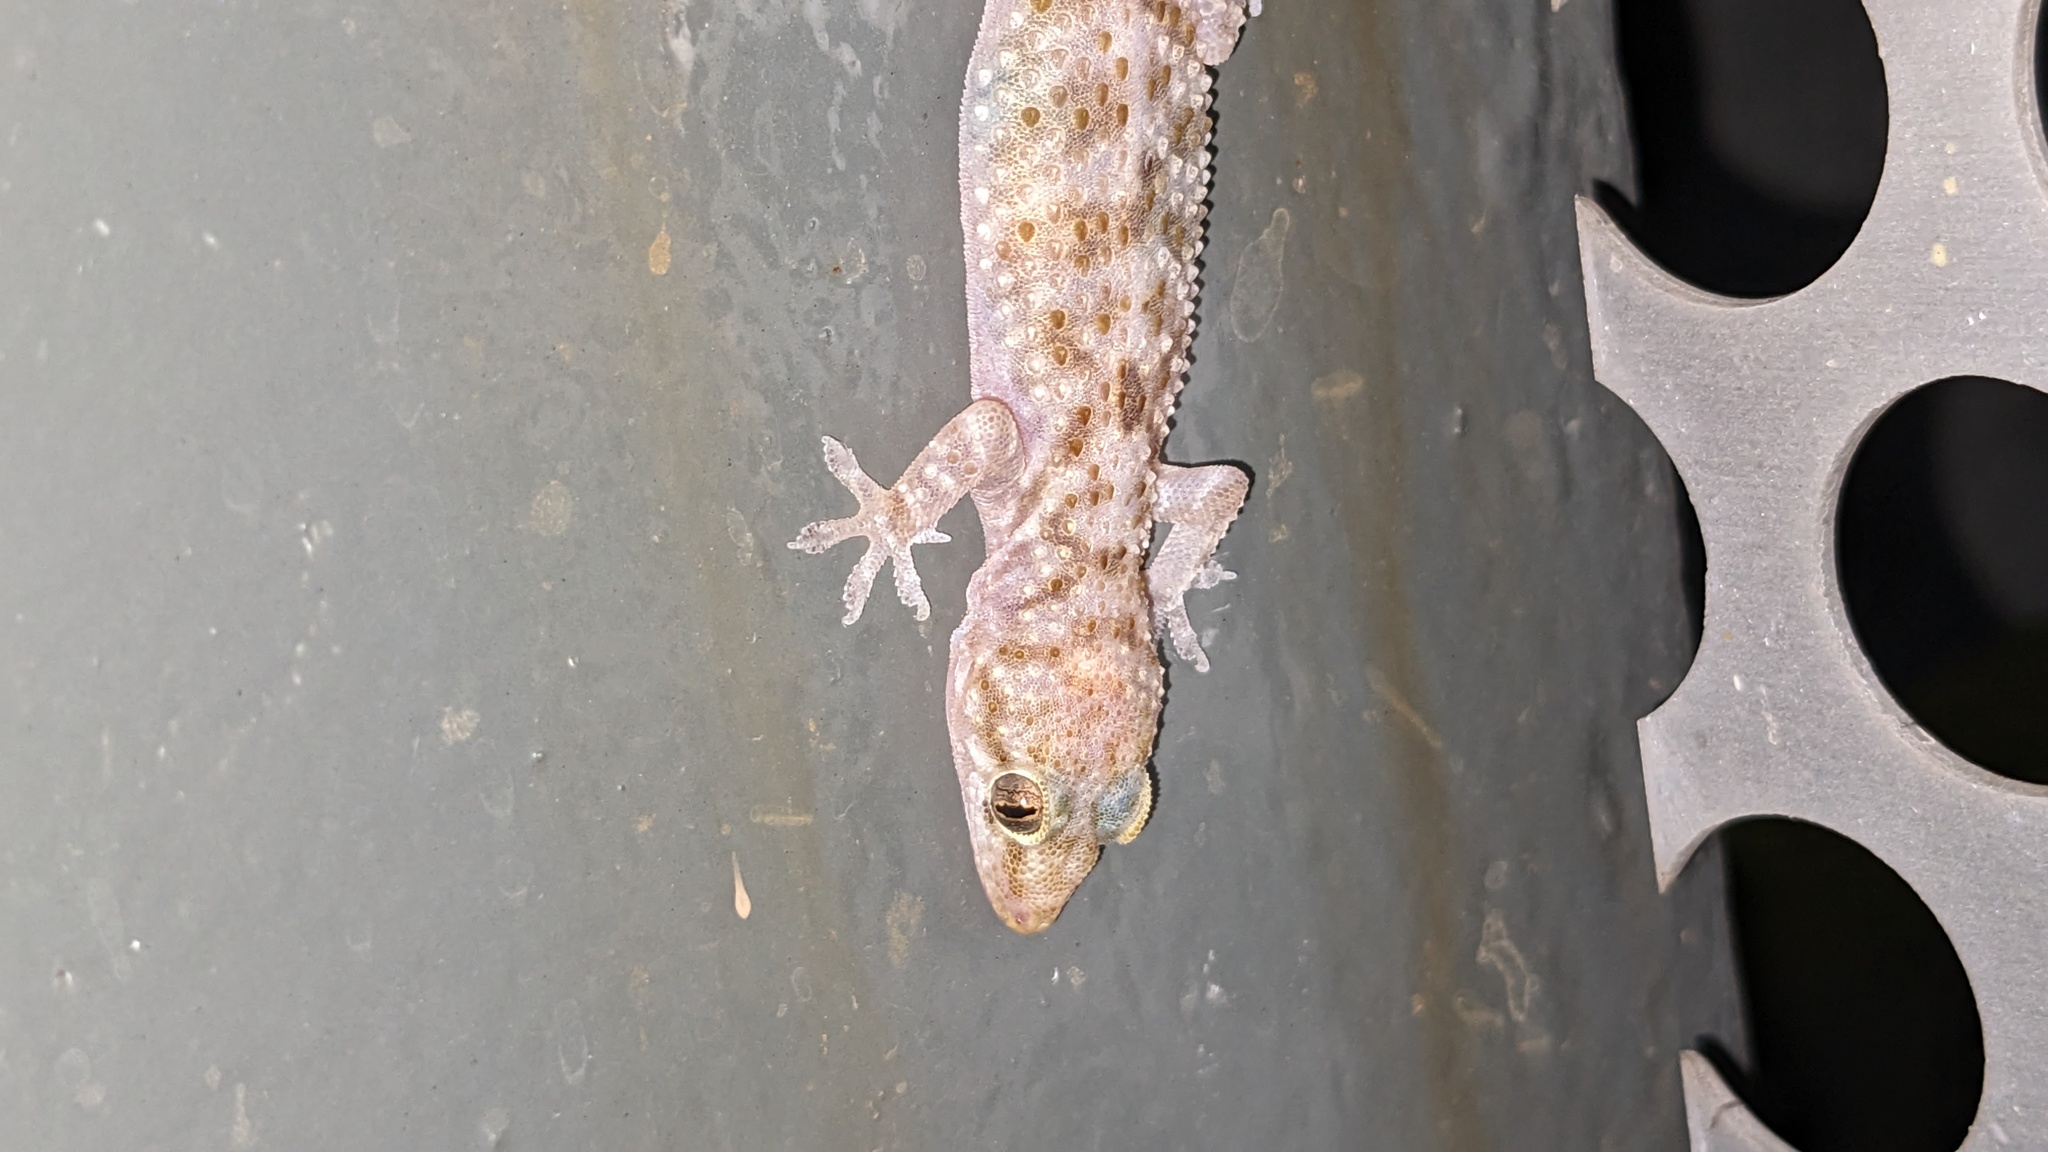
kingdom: Animalia
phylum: Chordata
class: Squamata
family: Gekkonidae
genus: Hemidactylus
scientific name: Hemidactylus turcicus
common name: Turkish gecko
